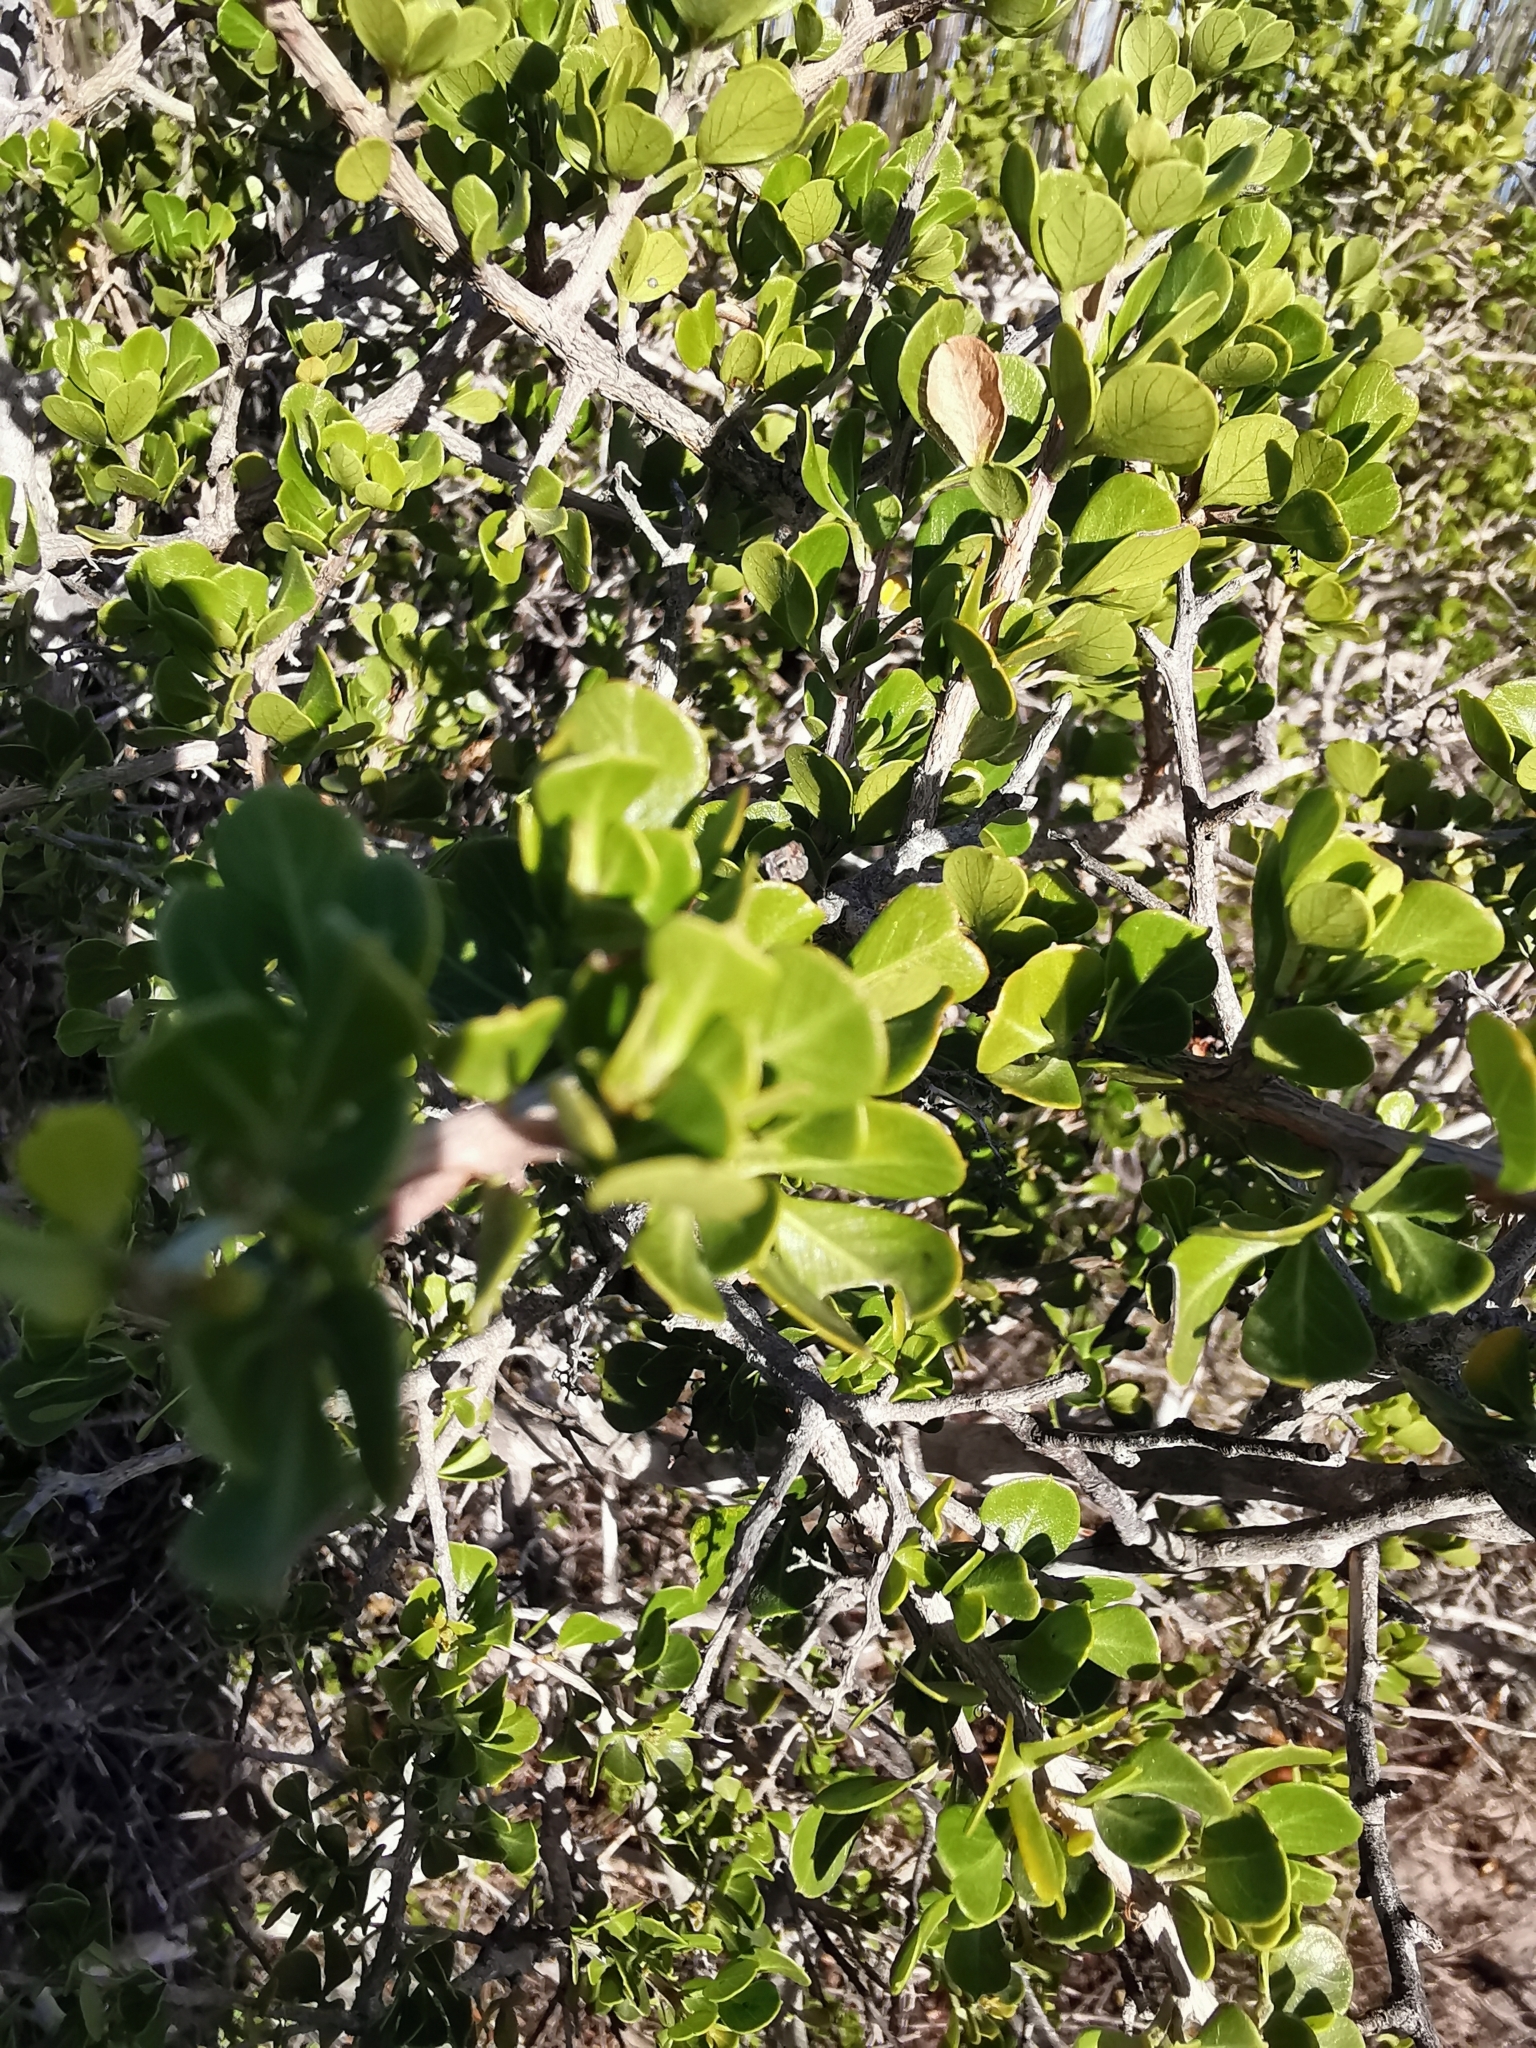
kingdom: Plantae
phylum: Tracheophyta
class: Magnoliopsida
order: Sapindales
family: Anacardiaceae
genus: Searsia
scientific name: Searsia glauca
